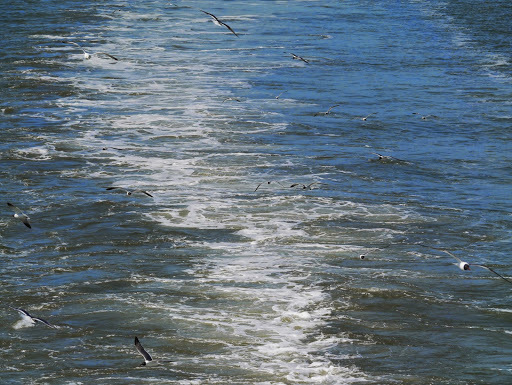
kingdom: Animalia
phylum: Chordata
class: Aves
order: Charadriiformes
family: Laridae
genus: Leucophaeus
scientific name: Leucophaeus atricilla
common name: Laughing gull
